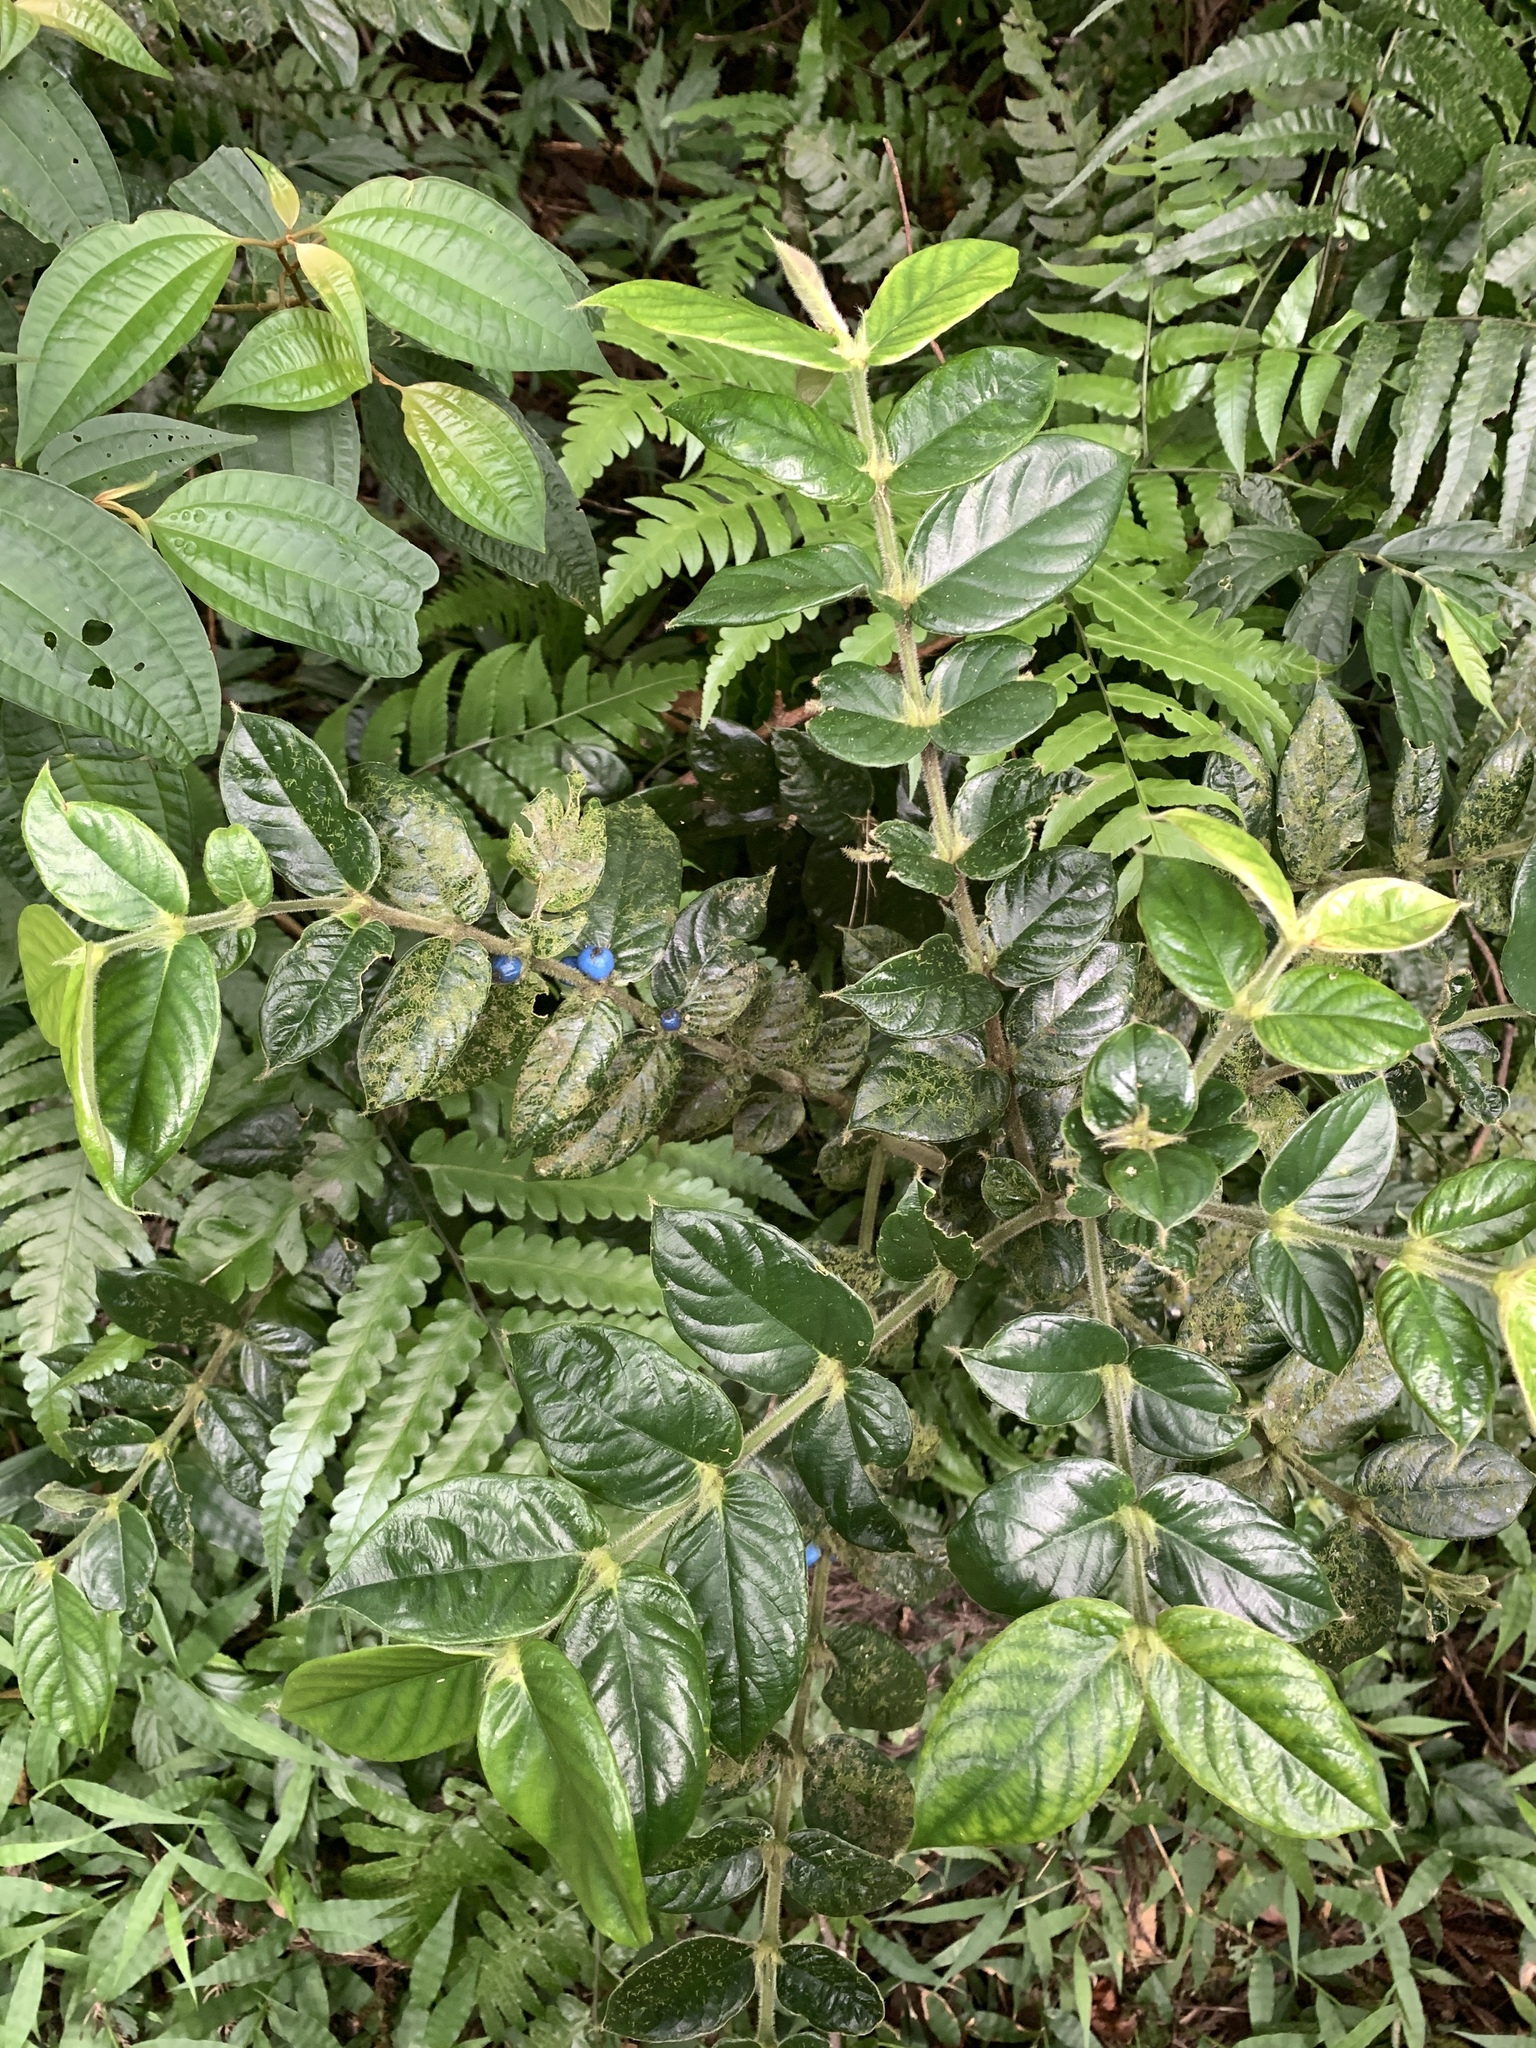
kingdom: Plantae
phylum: Tracheophyta
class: Magnoliopsida
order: Gentianales
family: Rubiaceae
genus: Lasianthus
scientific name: Lasianthus attenuatus
